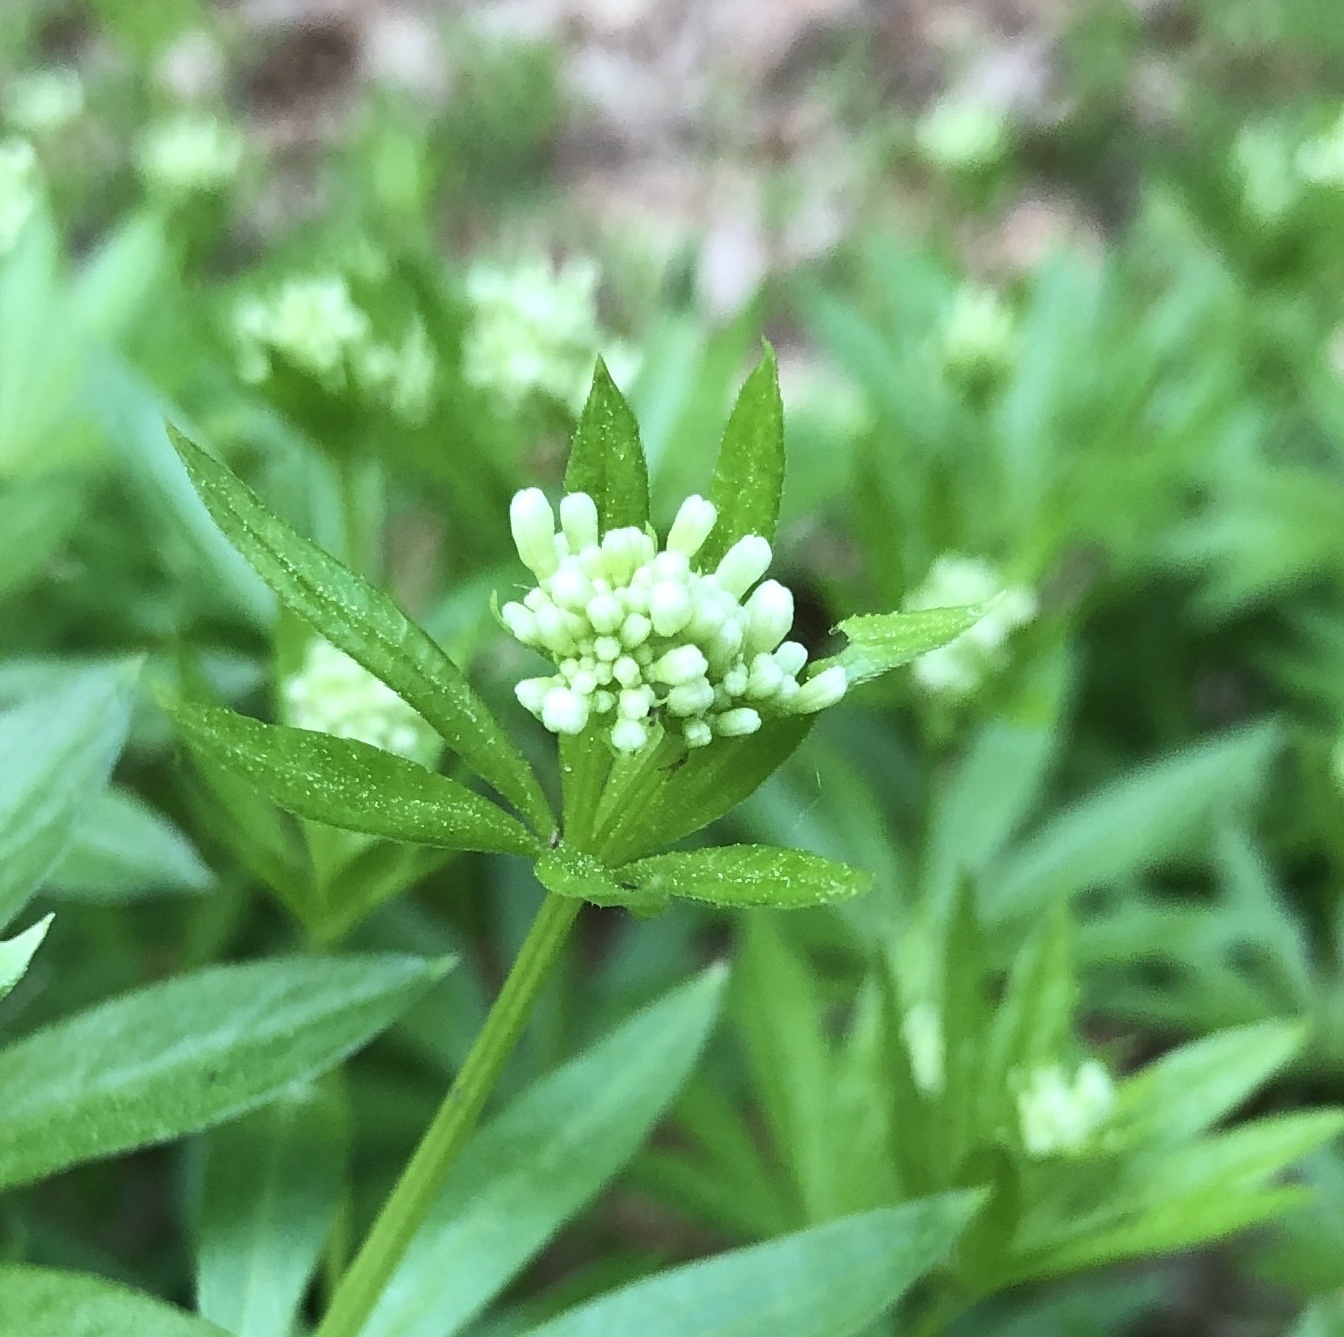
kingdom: Plantae
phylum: Tracheophyta
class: Magnoliopsida
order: Gentianales
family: Rubiaceae
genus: Galium
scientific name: Galium odoratum
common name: Sweet woodruff
